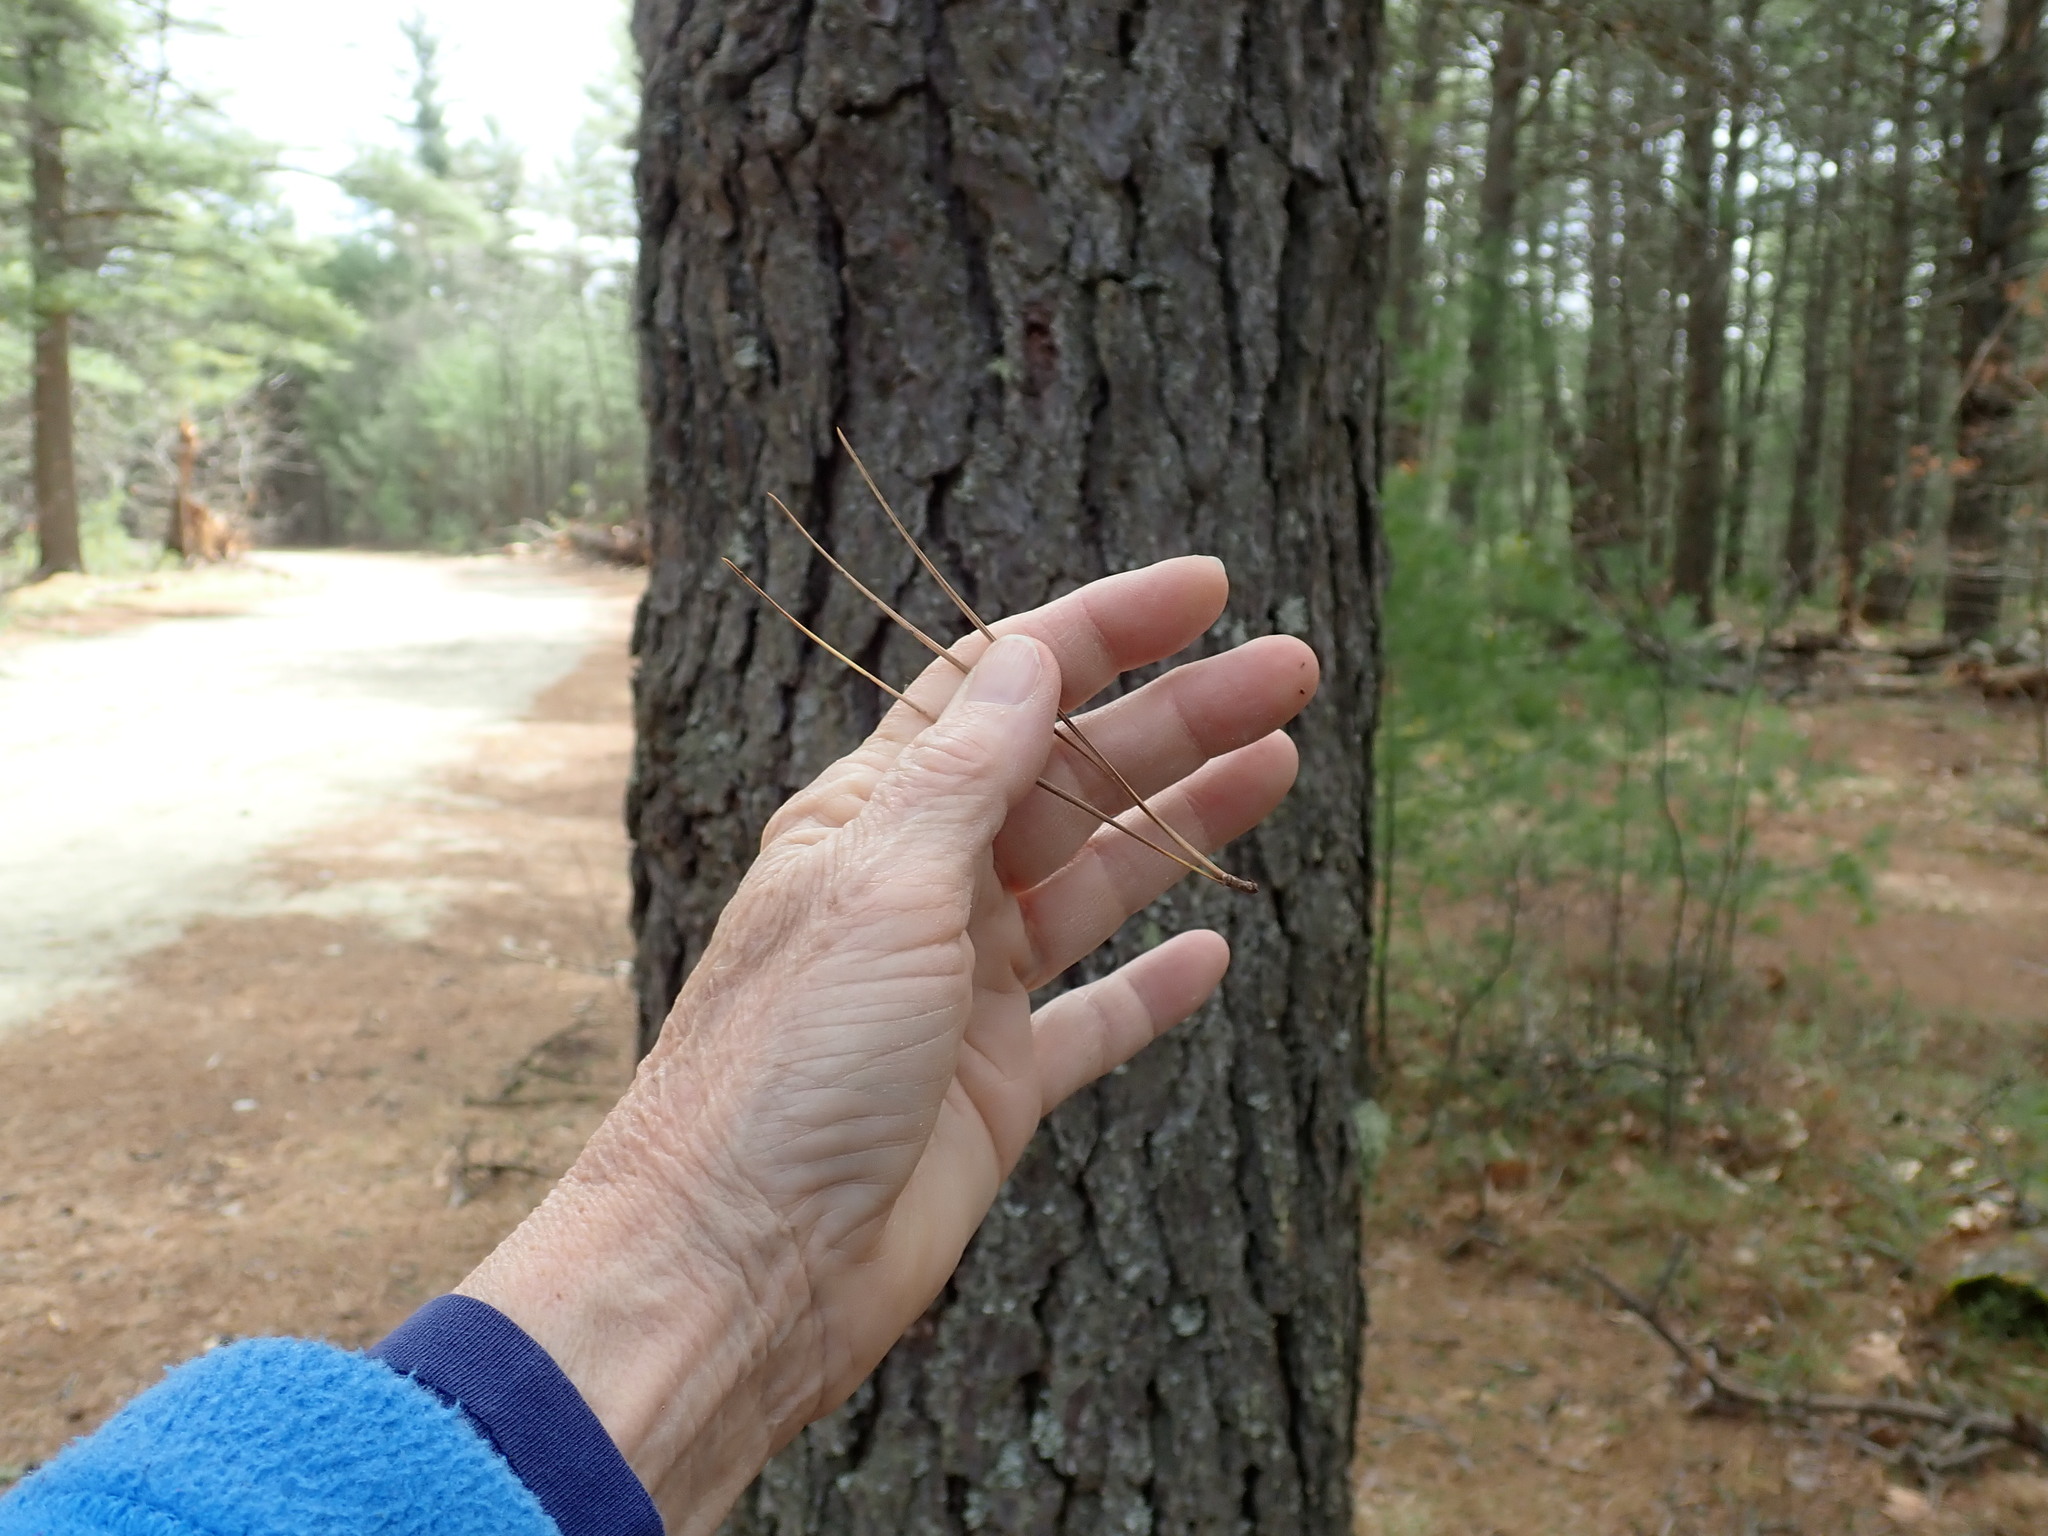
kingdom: Plantae
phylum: Tracheophyta
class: Pinopsida
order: Pinales
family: Pinaceae
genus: Pinus
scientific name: Pinus rigida
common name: Pitch pine
